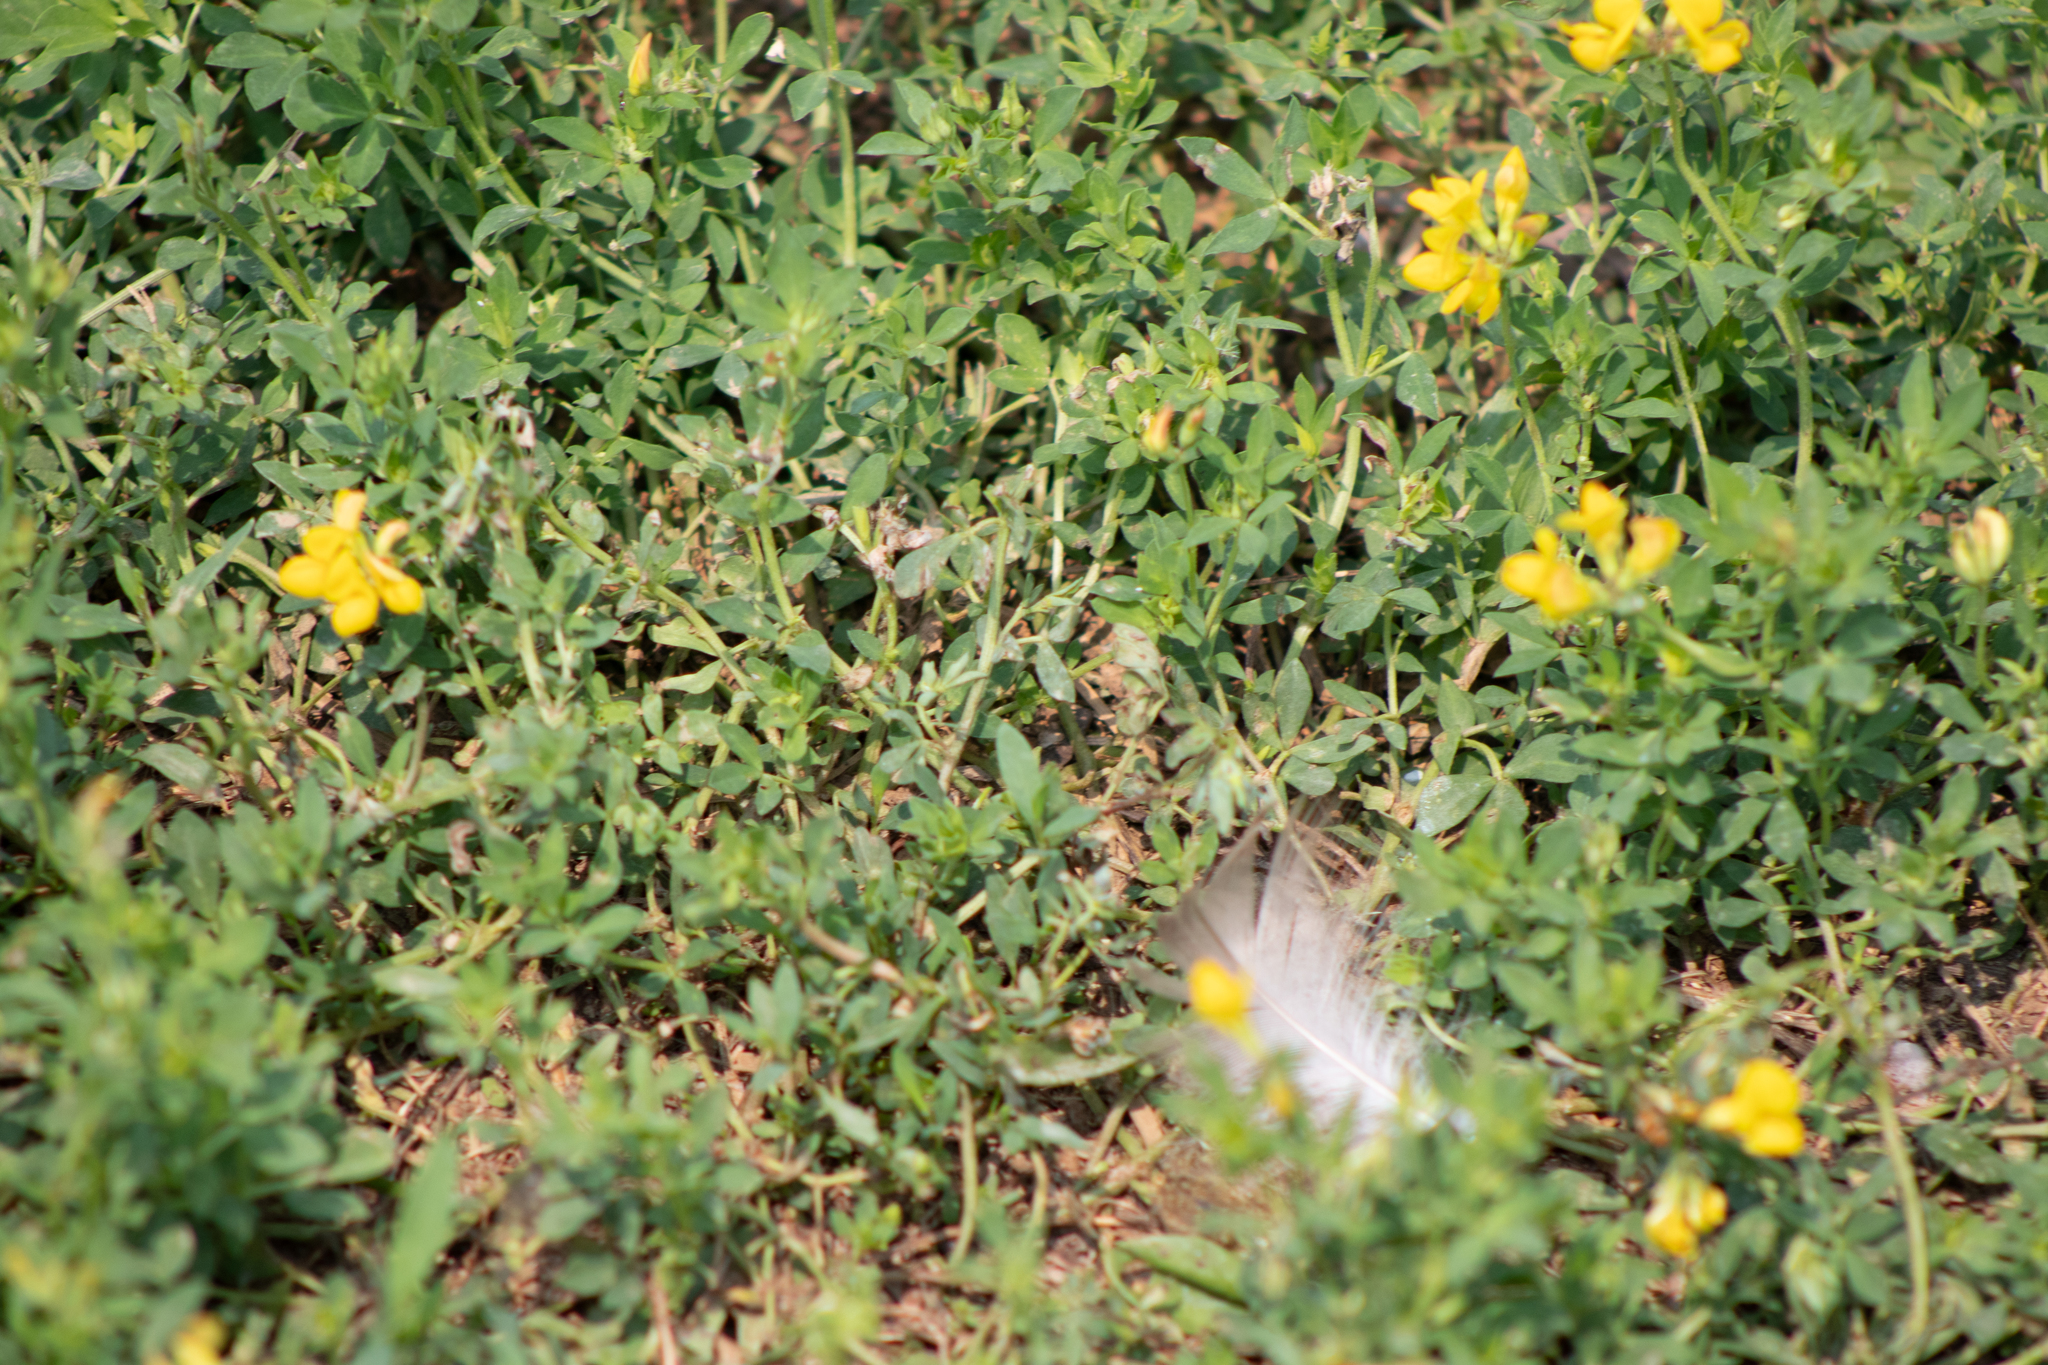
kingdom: Plantae
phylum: Tracheophyta
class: Magnoliopsida
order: Fabales
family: Fabaceae
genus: Lotus
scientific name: Lotus corniculatus
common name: Common bird's-foot-trefoil
